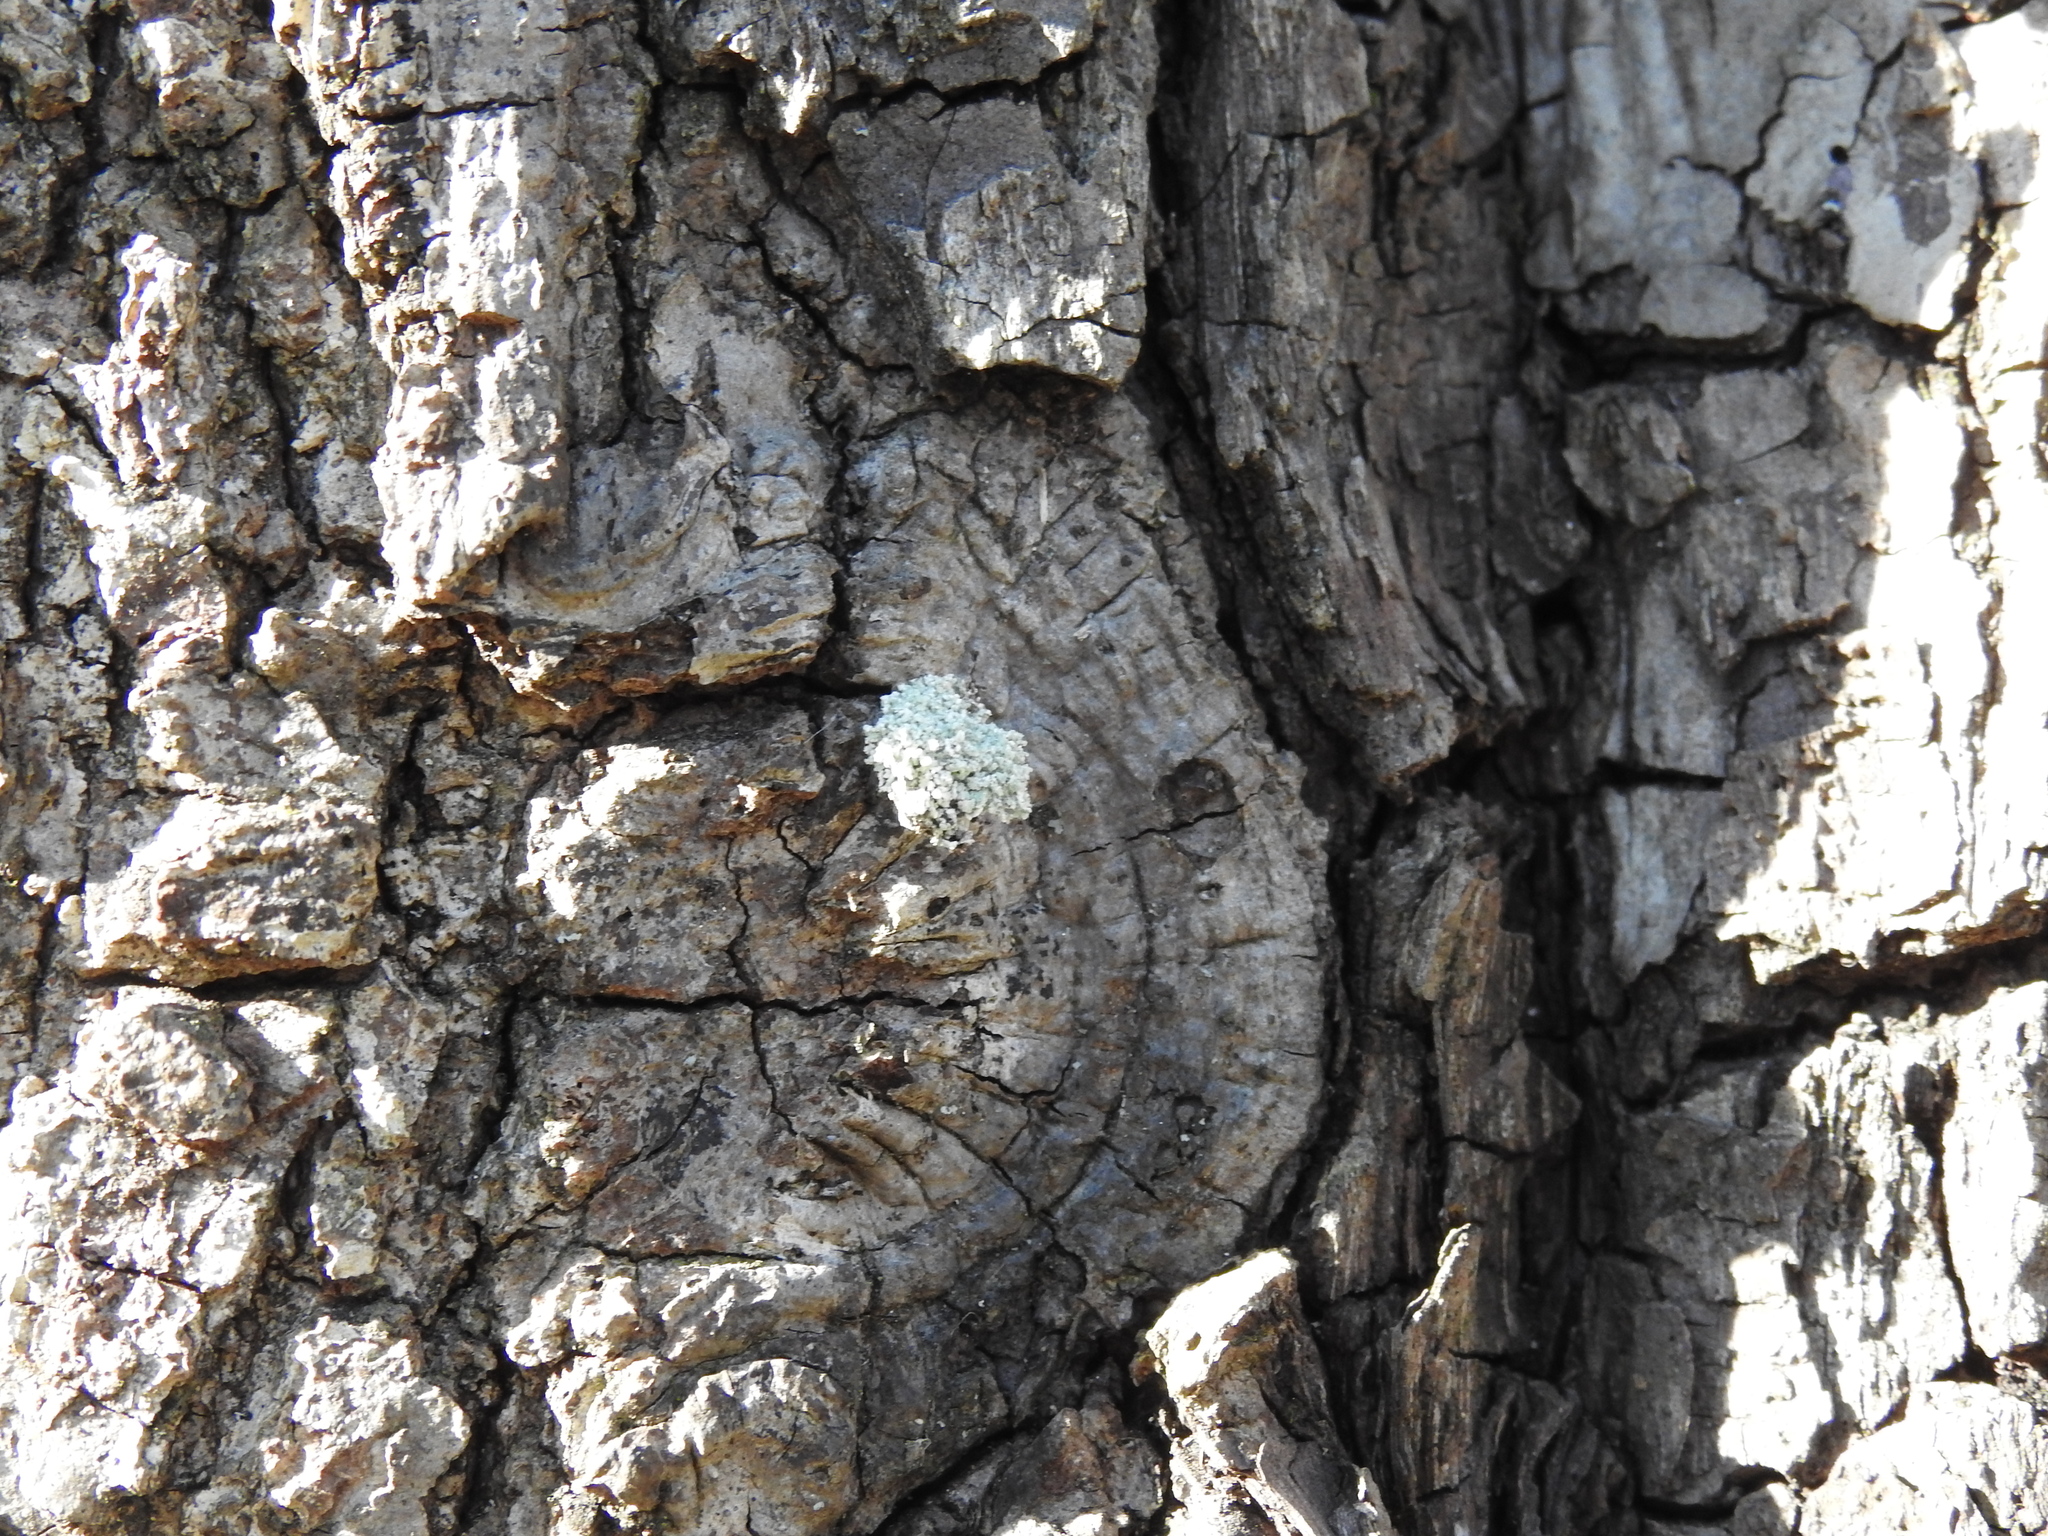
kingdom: Animalia
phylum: Arthropoda
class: Insecta
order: Neuroptera
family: Chrysopidae
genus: Leucochrysa
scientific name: Leucochrysa pavida
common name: Lichen-carrying green lacewing
